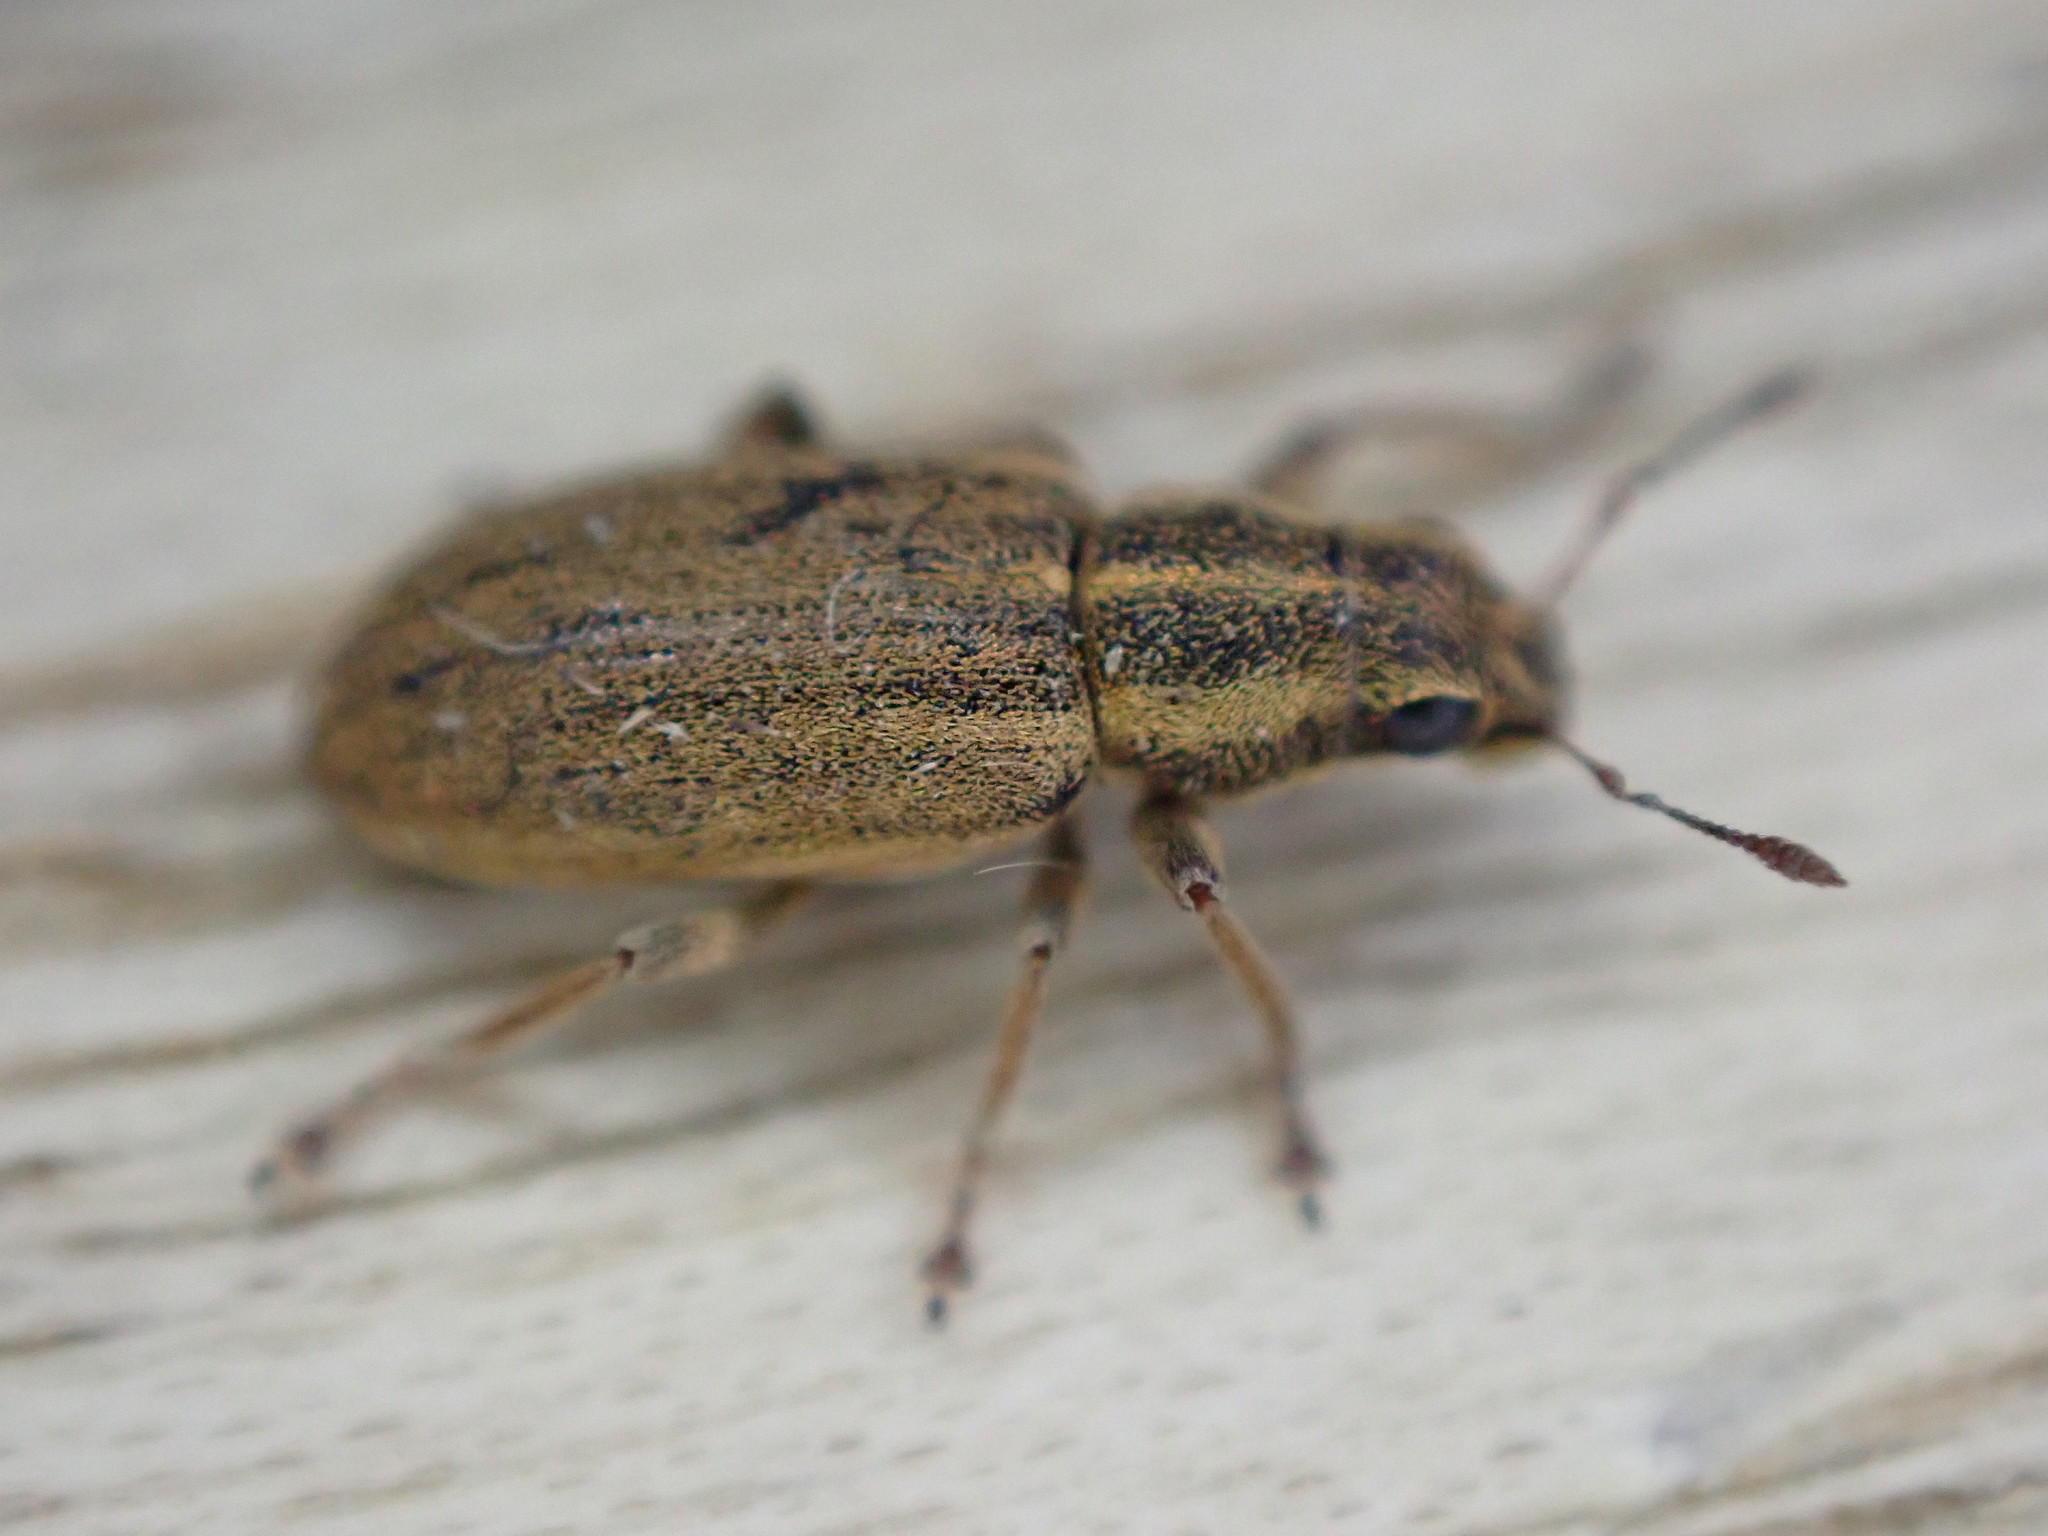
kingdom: Animalia
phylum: Arthropoda
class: Insecta
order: Coleoptera
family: Curculionidae
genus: Sitona
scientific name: Sitona lineatus
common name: Weevil
